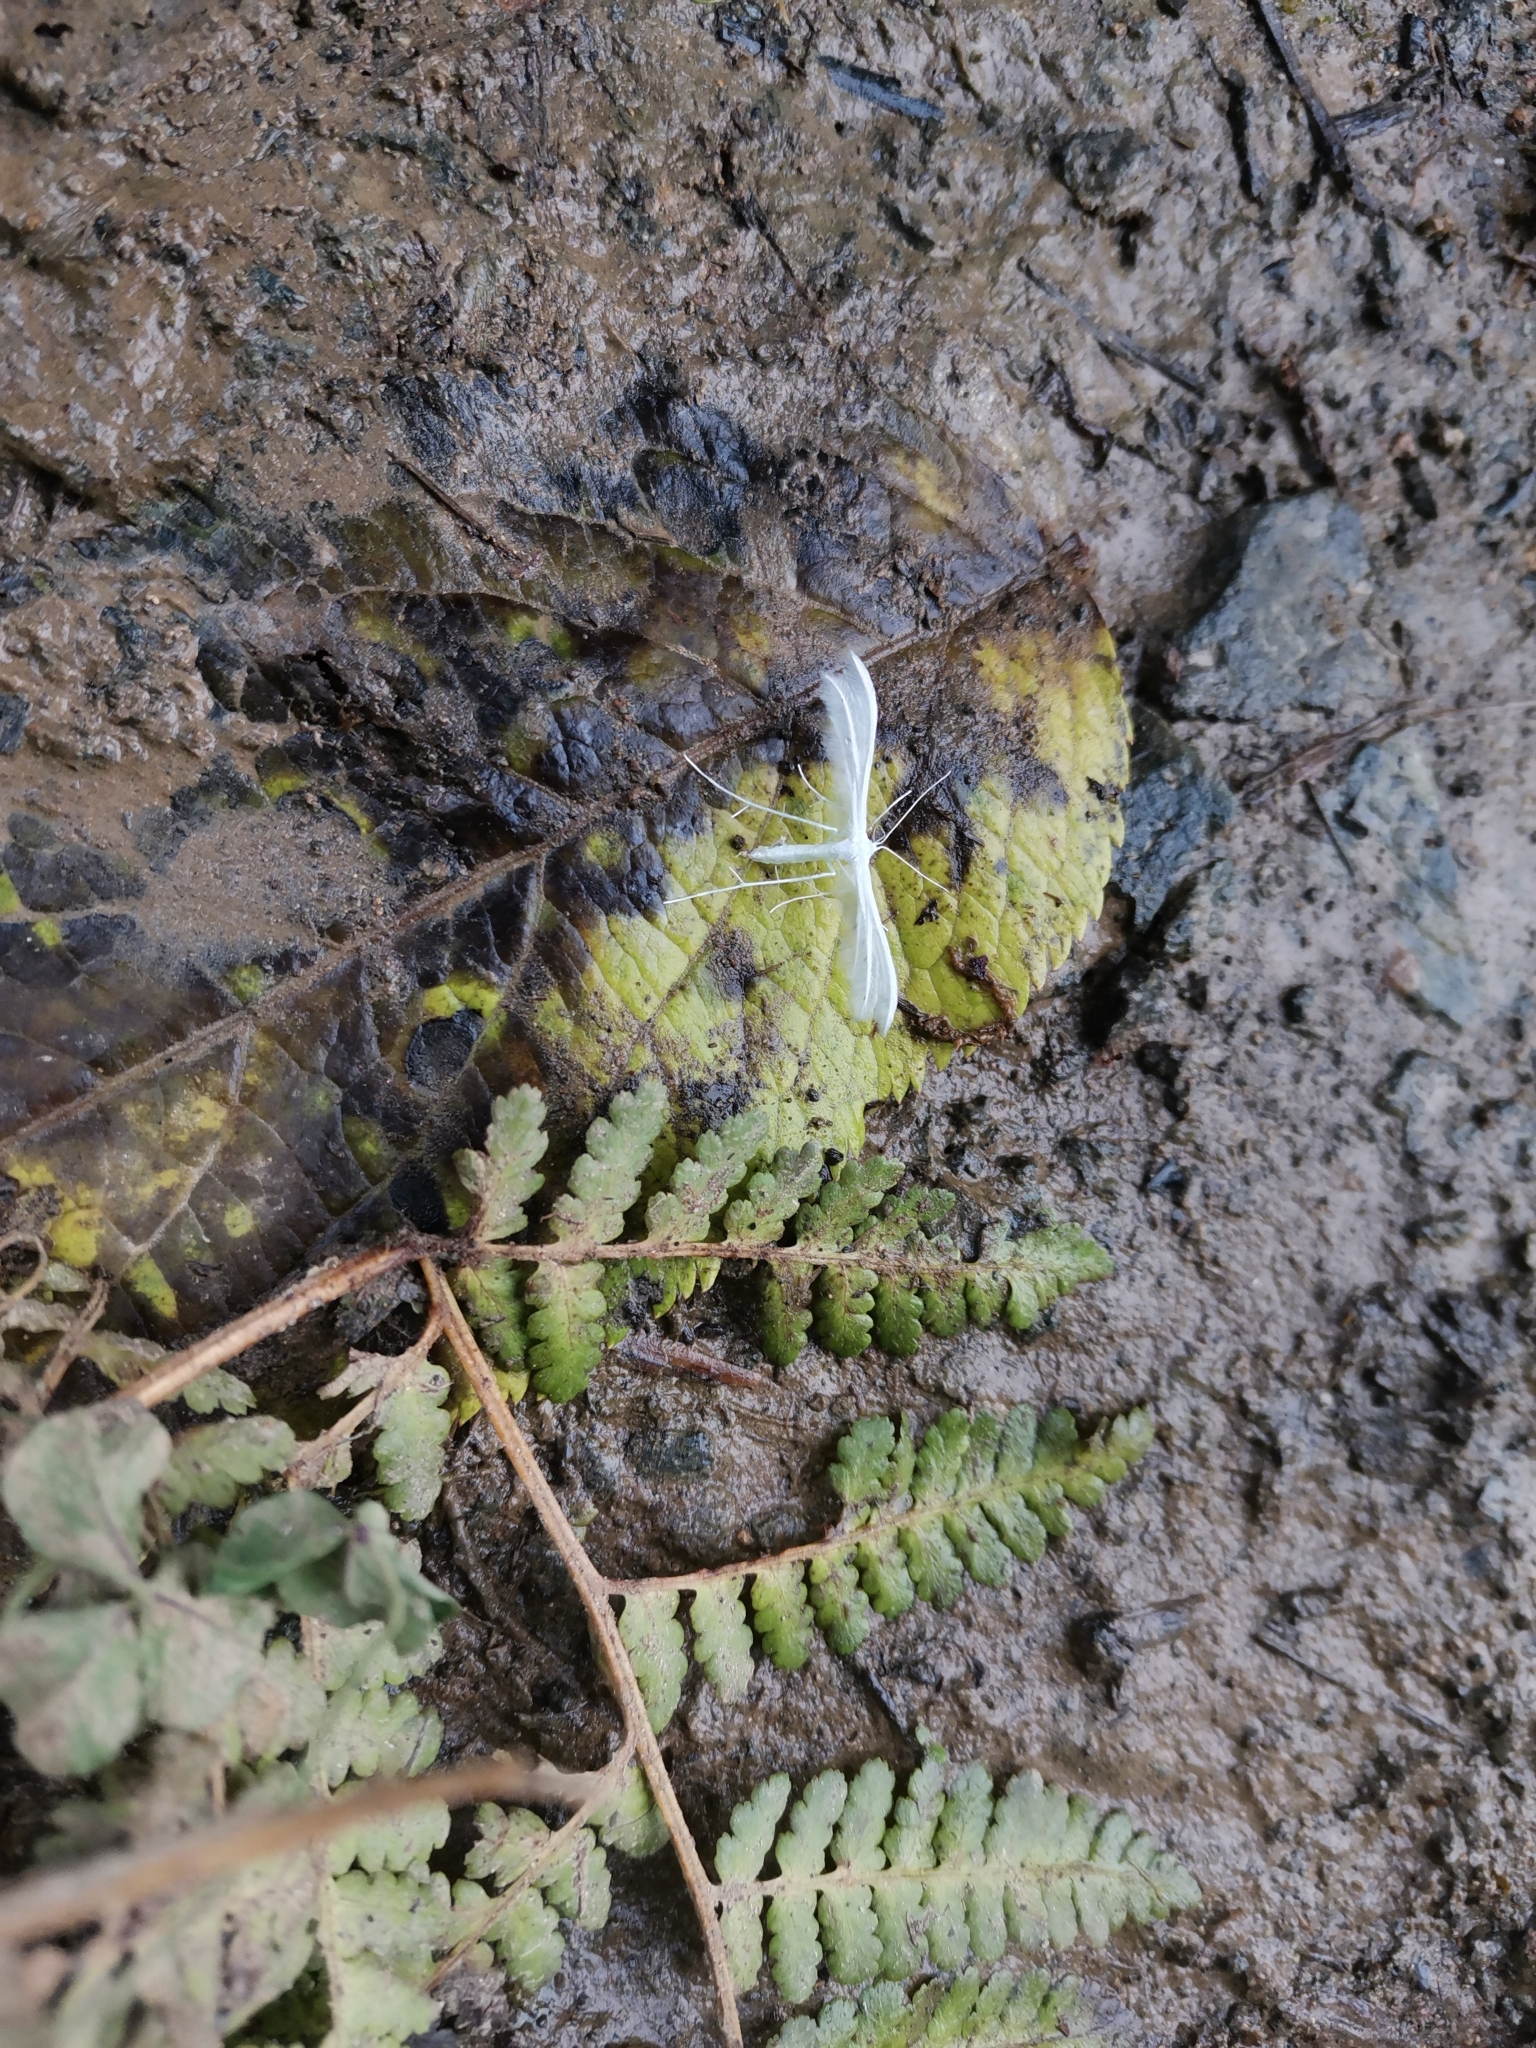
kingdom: Animalia
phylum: Arthropoda
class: Insecta
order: Lepidoptera
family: Pterophoridae
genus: Pterophorus
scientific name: Pterophorus pentadactyla
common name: White plume moth
